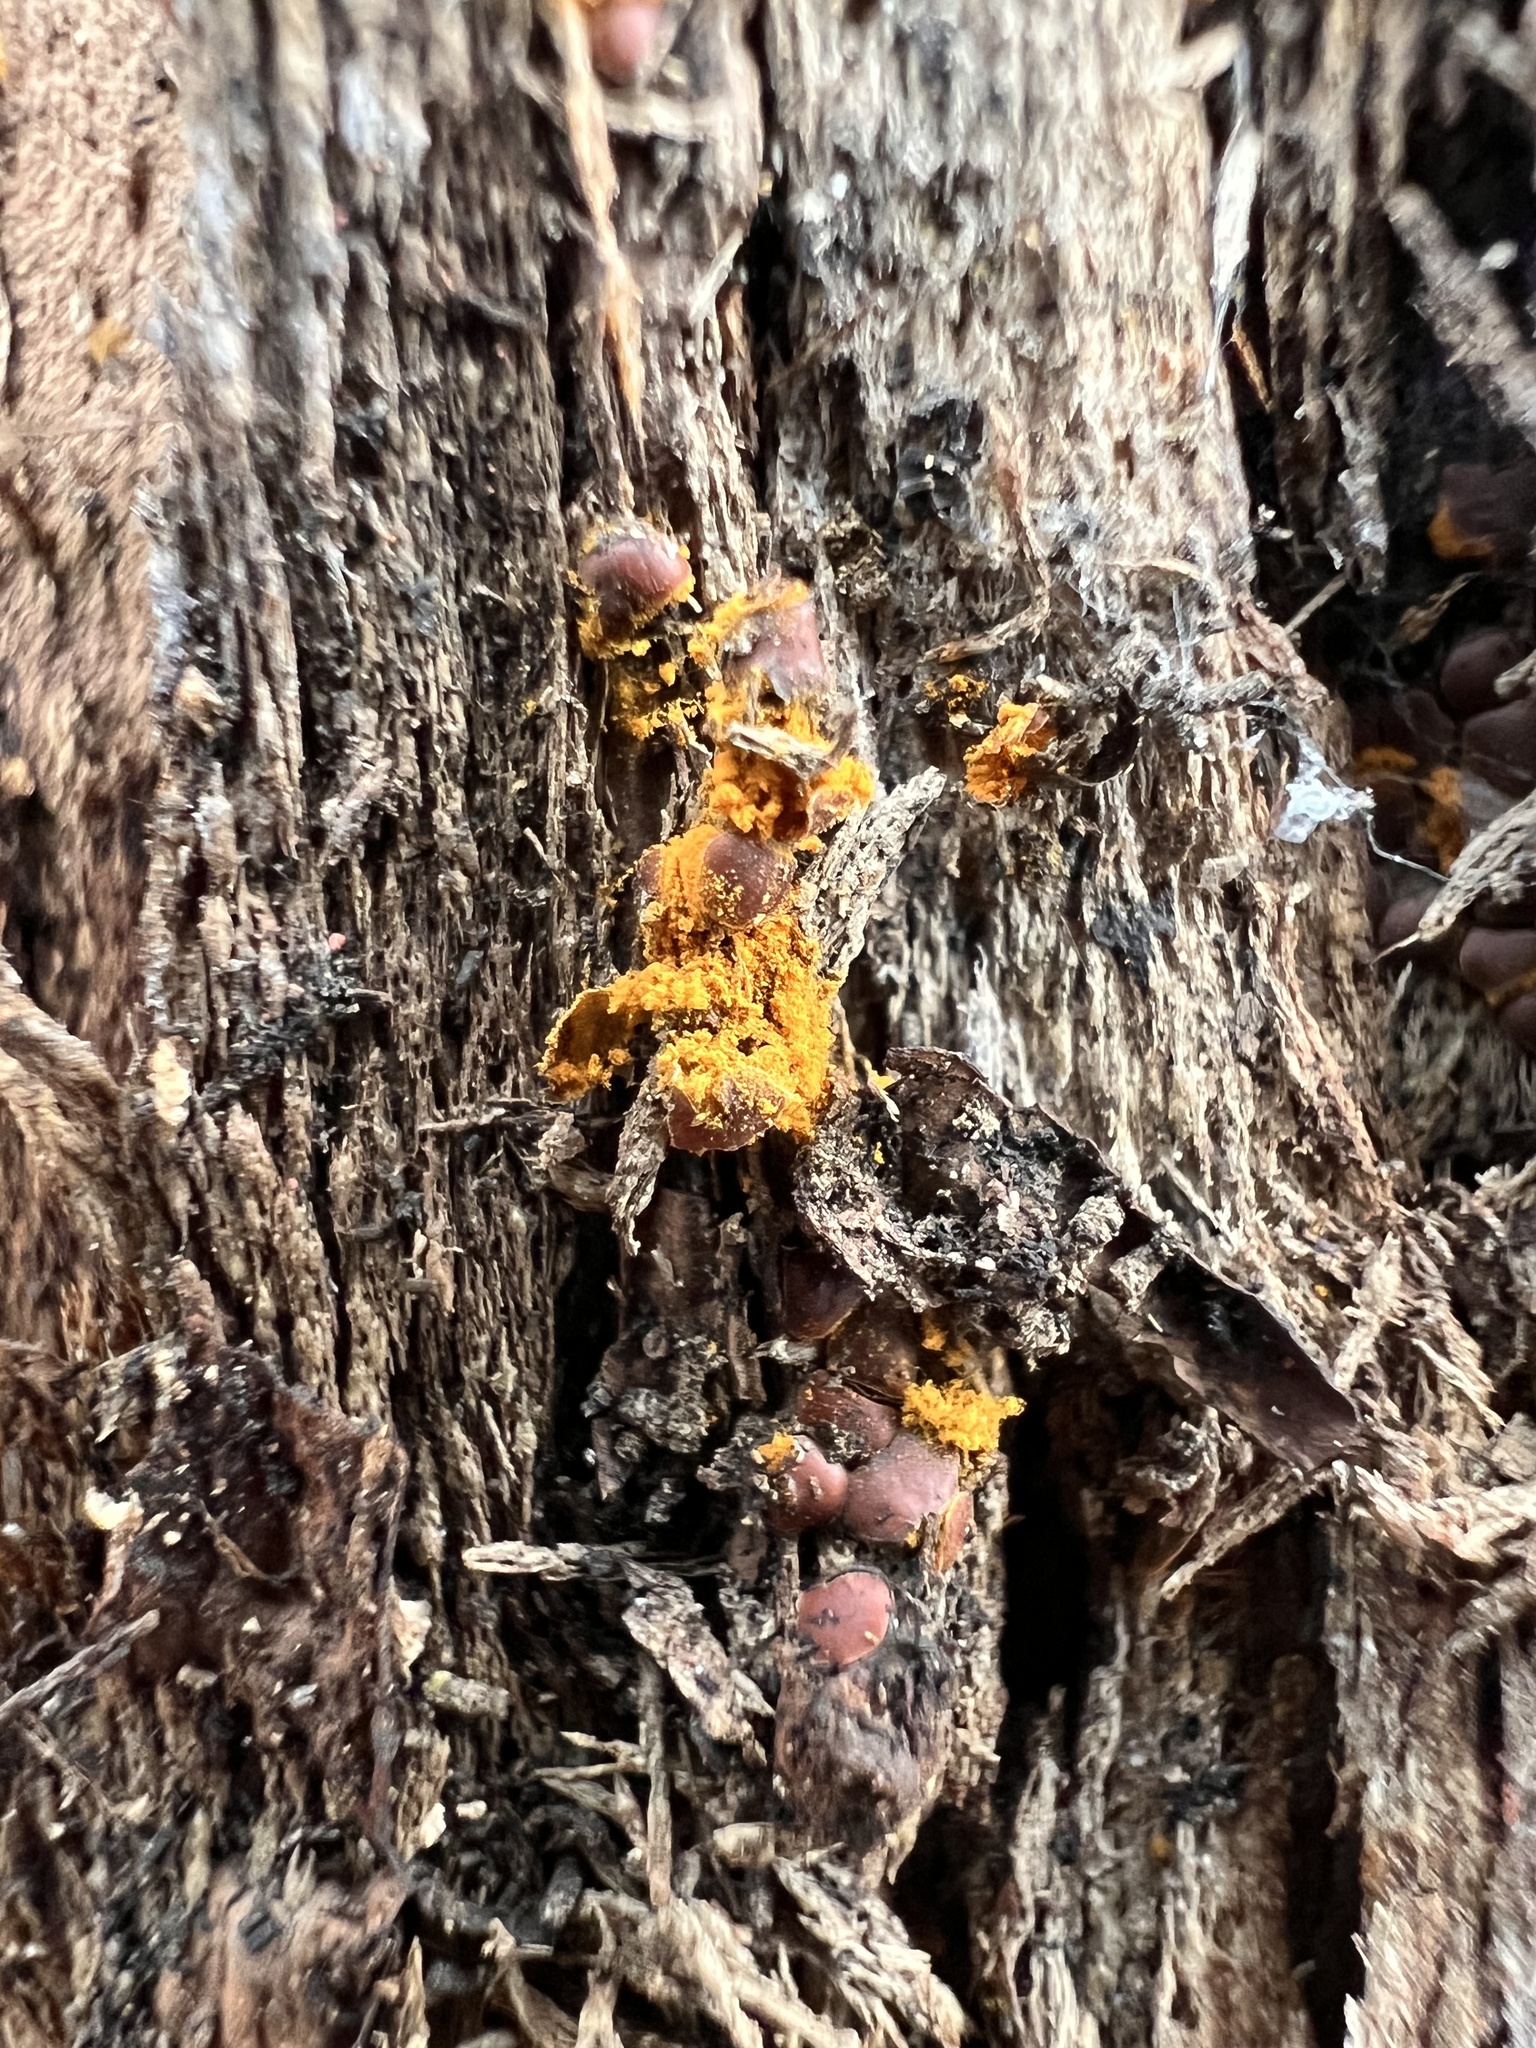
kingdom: Protozoa
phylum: Mycetozoa
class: Myxomycetes
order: Trichiales
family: Trichiaceae
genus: Perichaena
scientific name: Perichaena depressa
